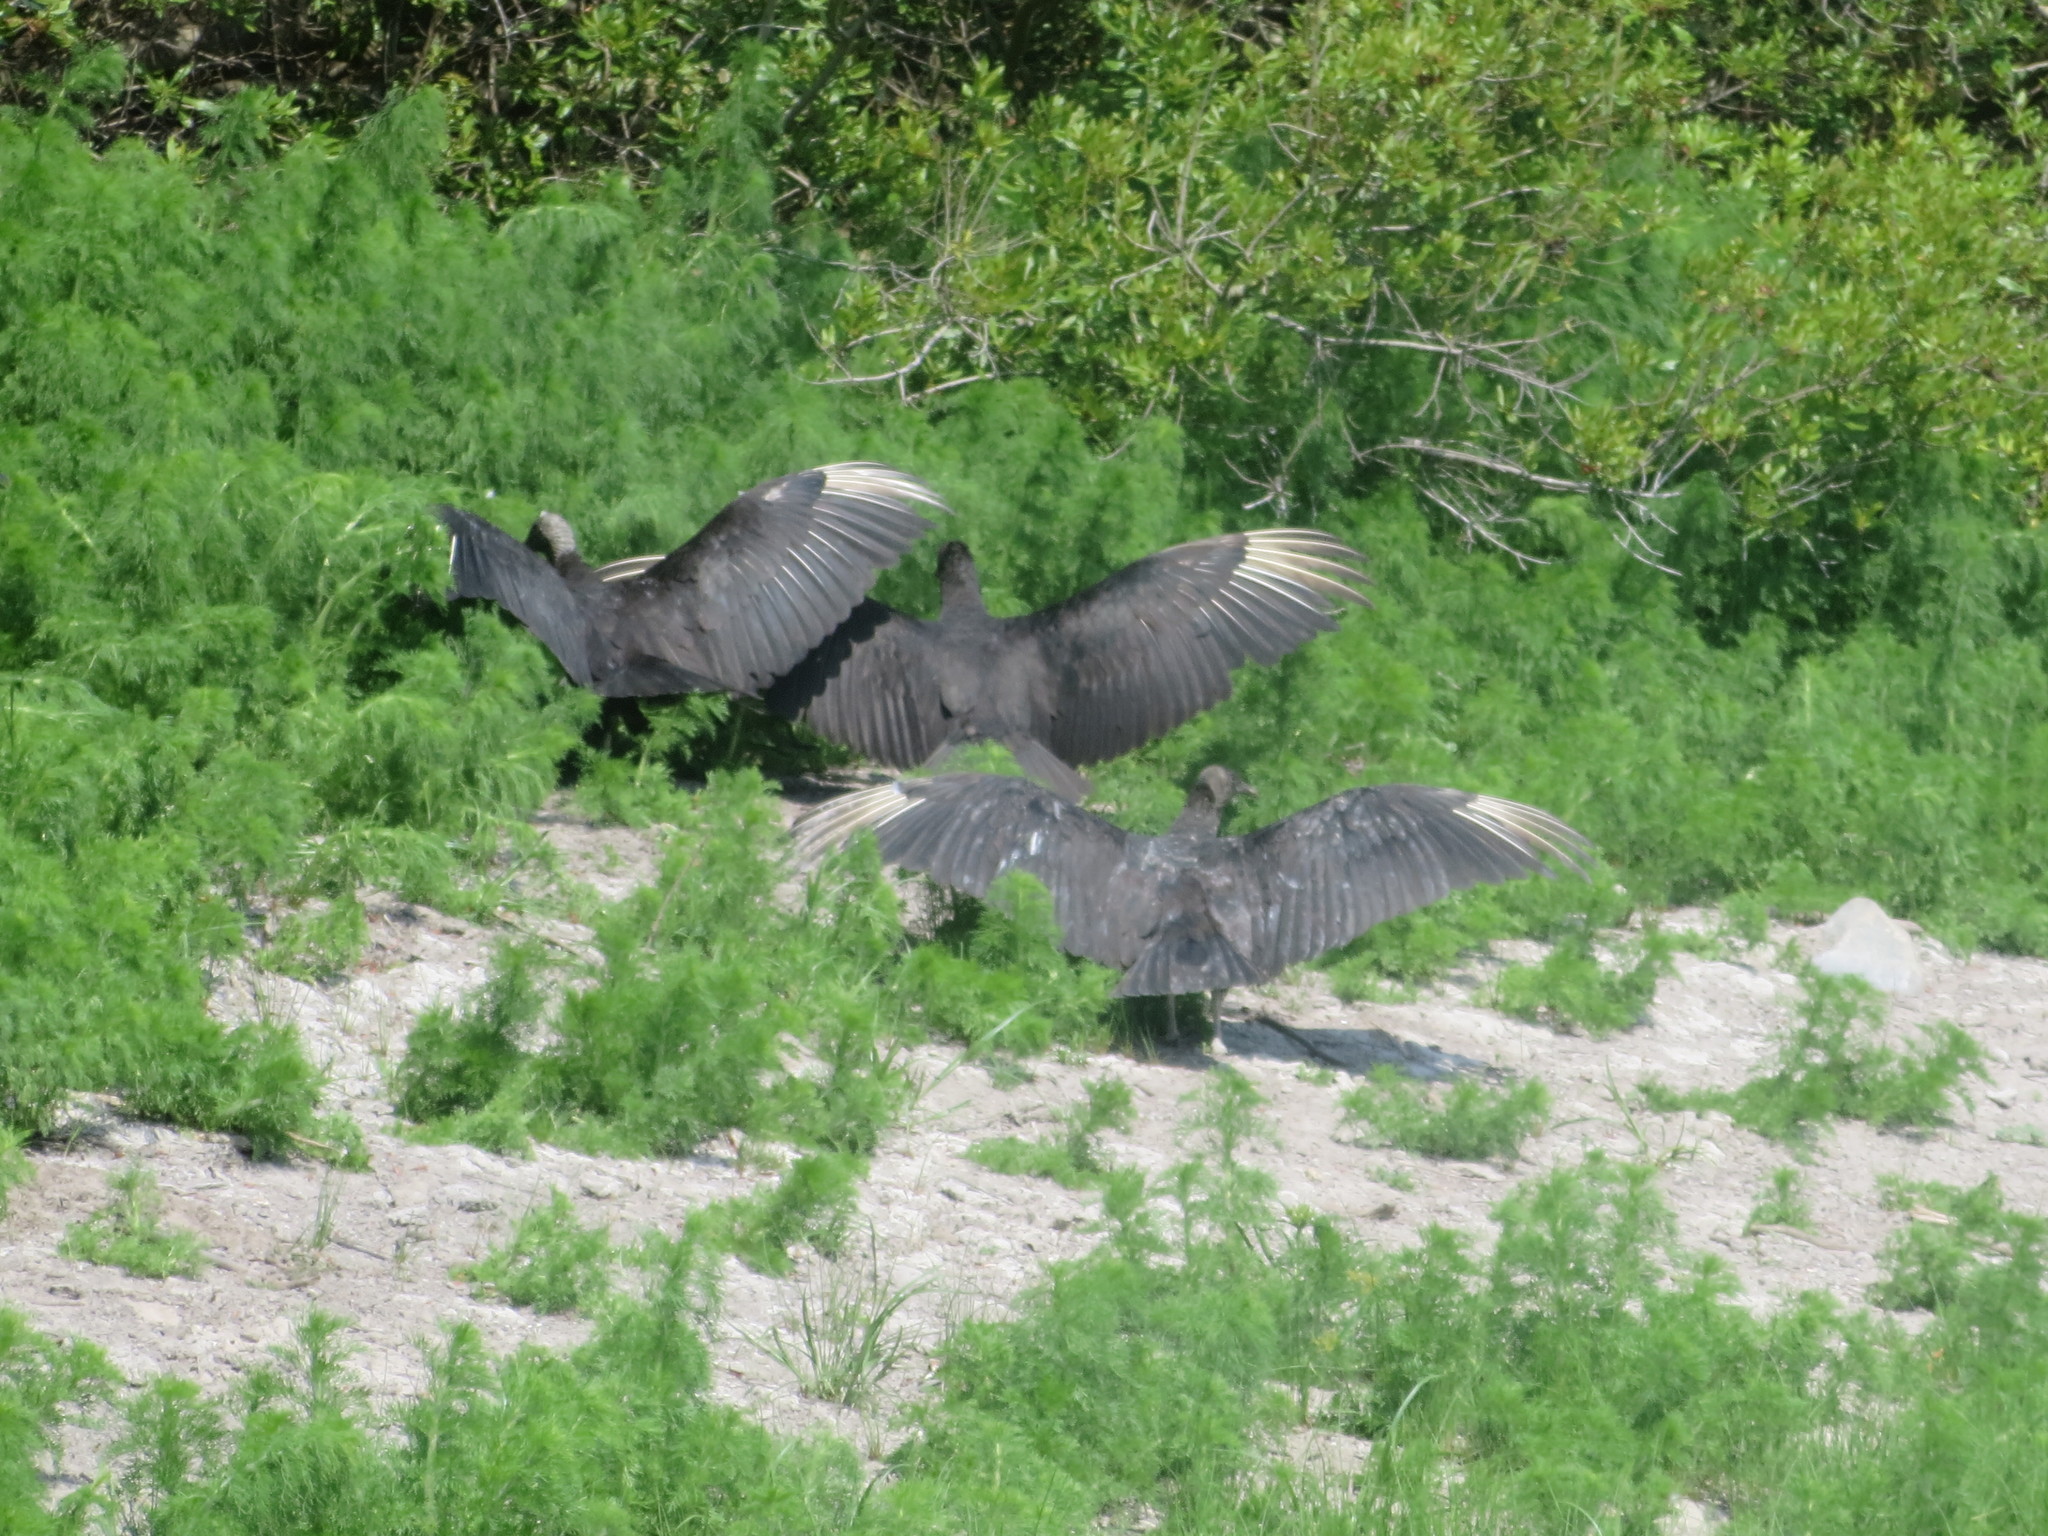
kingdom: Animalia
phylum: Chordata
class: Aves
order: Accipitriformes
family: Cathartidae
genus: Coragyps
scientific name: Coragyps atratus
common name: Black vulture
